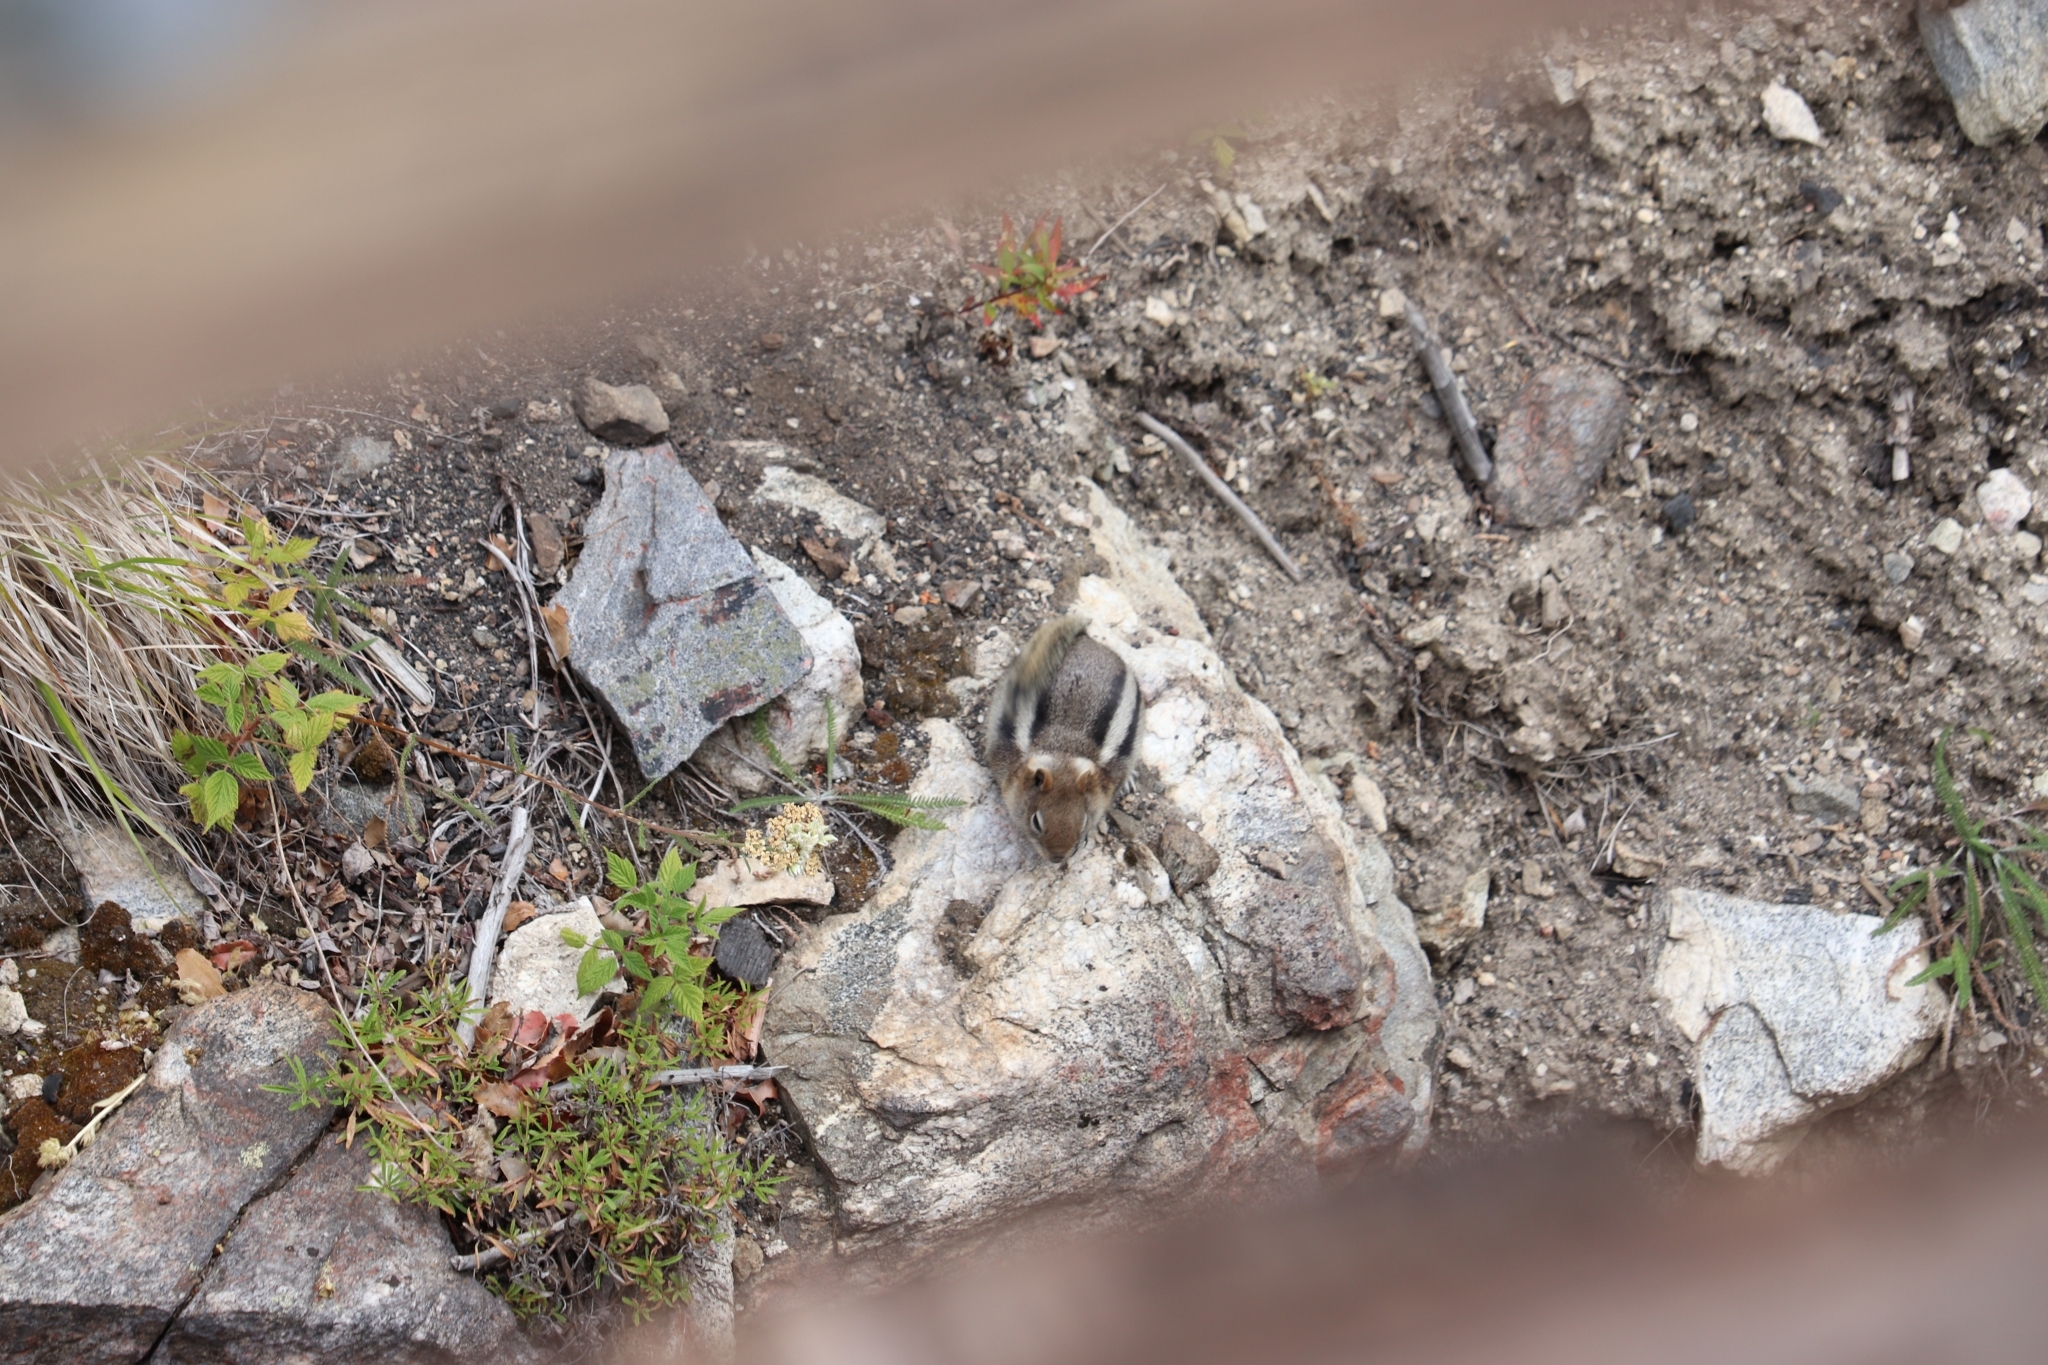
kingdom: Animalia
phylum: Chordata
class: Mammalia
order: Rodentia
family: Sciuridae
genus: Callospermophilus
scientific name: Callospermophilus lateralis
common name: Golden-mantled ground squirrel
